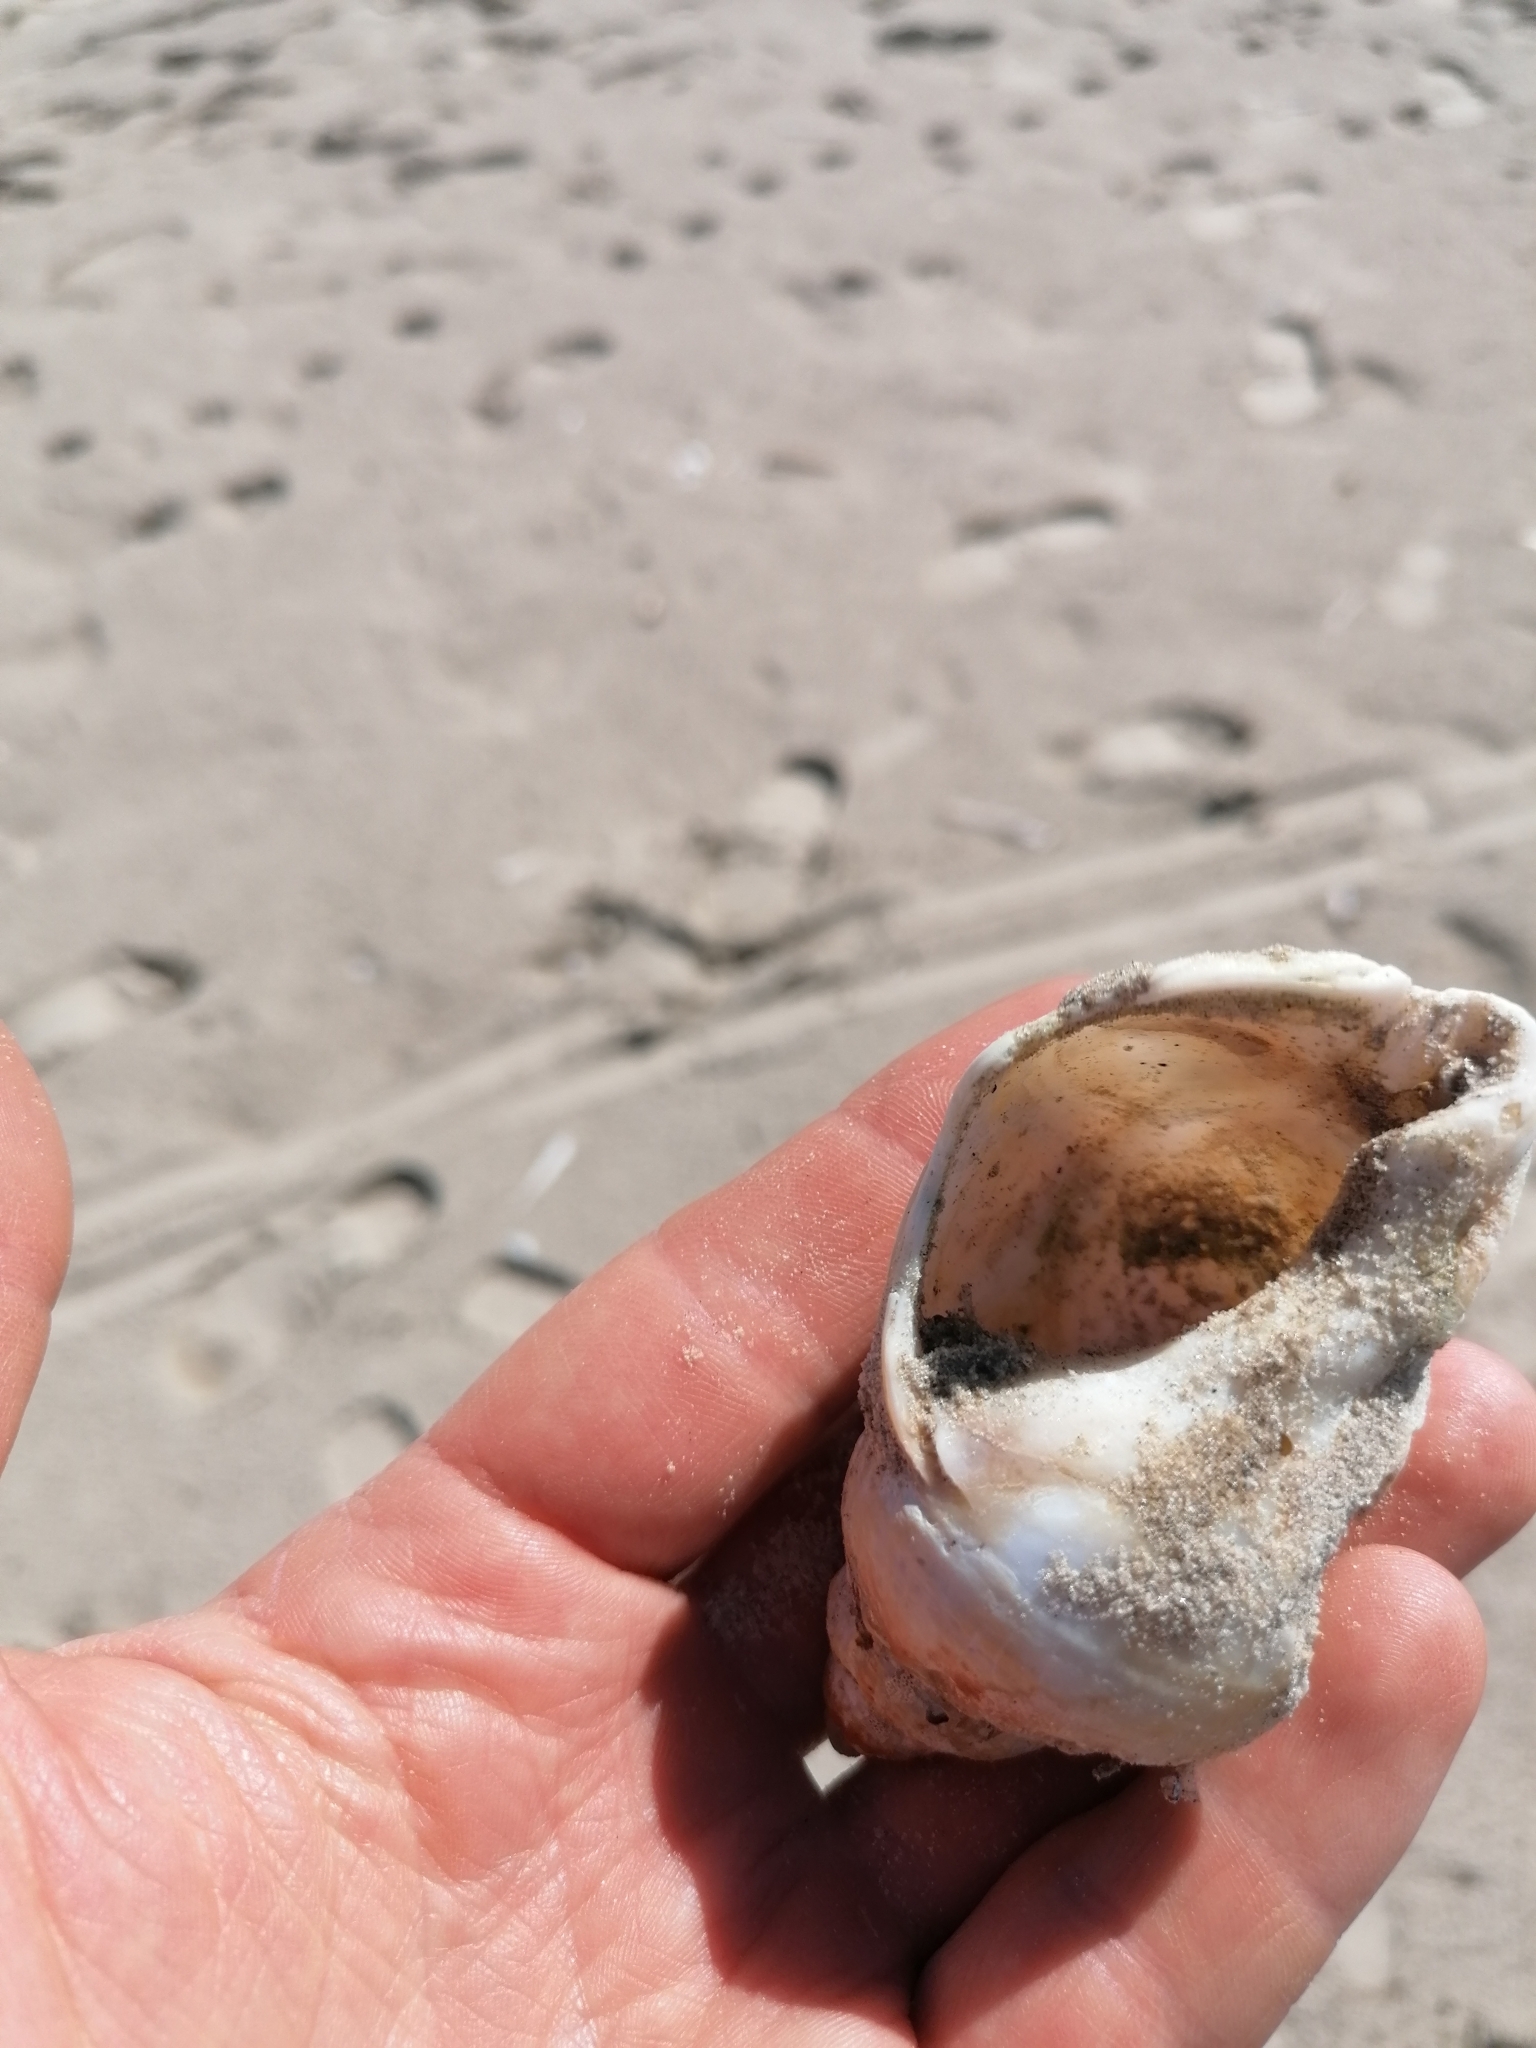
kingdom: Animalia
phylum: Mollusca
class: Gastropoda
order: Neogastropoda
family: Buccinidae
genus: Buccinum
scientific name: Buccinum undatum
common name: Common whelk
